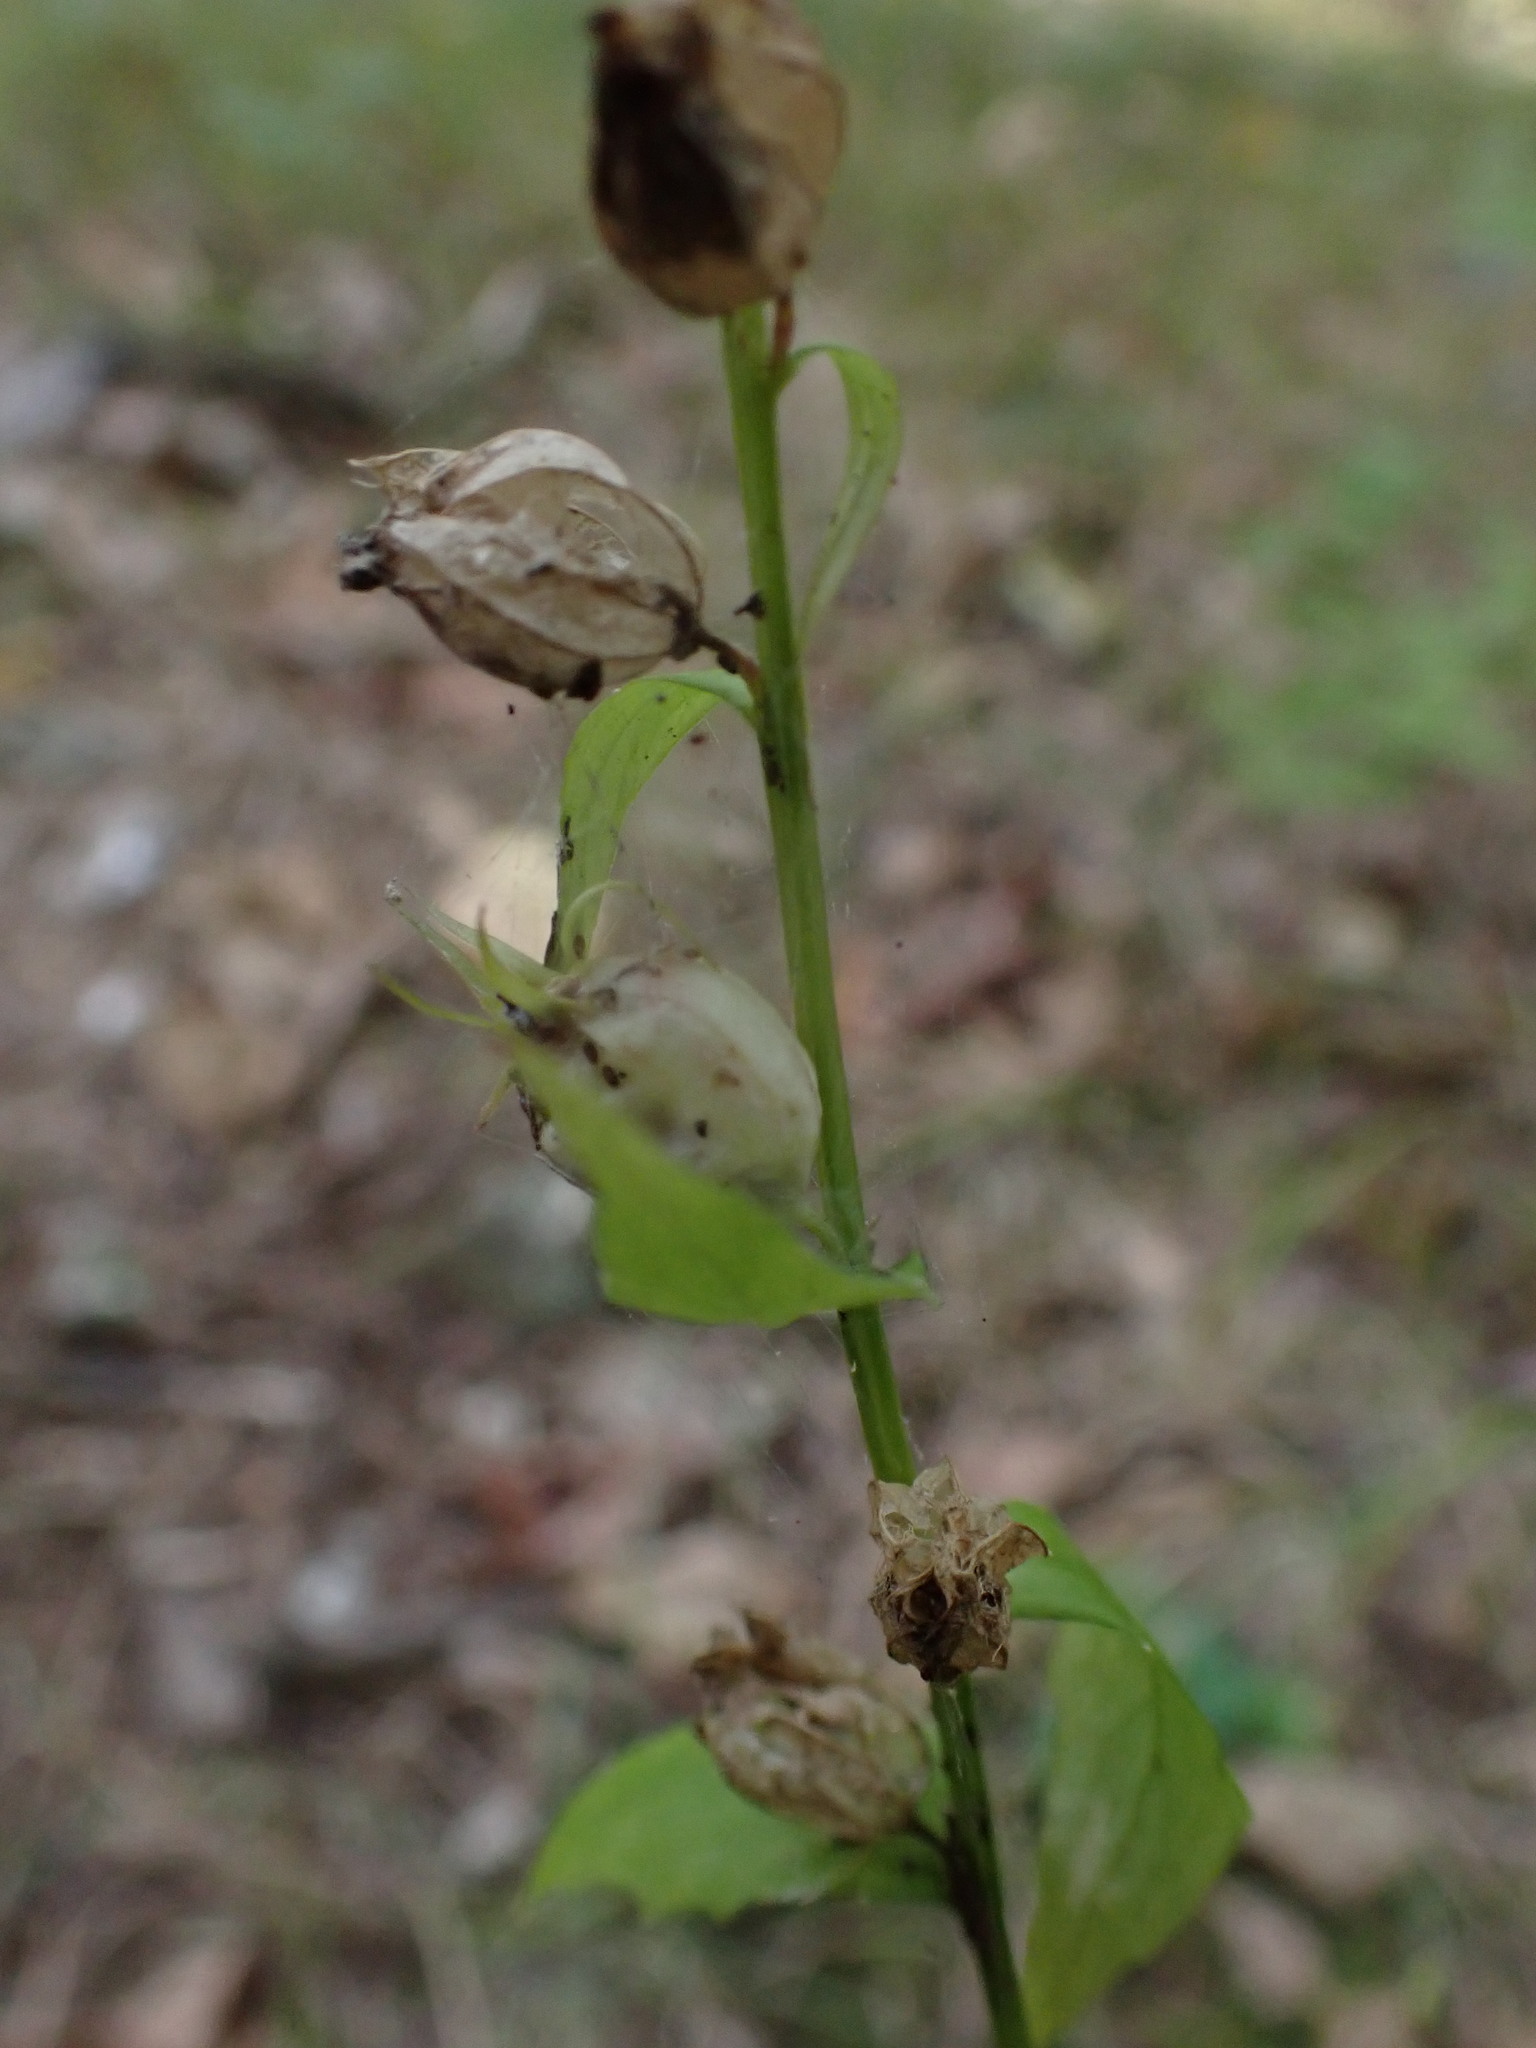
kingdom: Plantae
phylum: Tracheophyta
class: Magnoliopsida
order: Asterales
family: Campanulaceae
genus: Lobelia
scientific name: Lobelia inflata
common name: Indian tobacco
